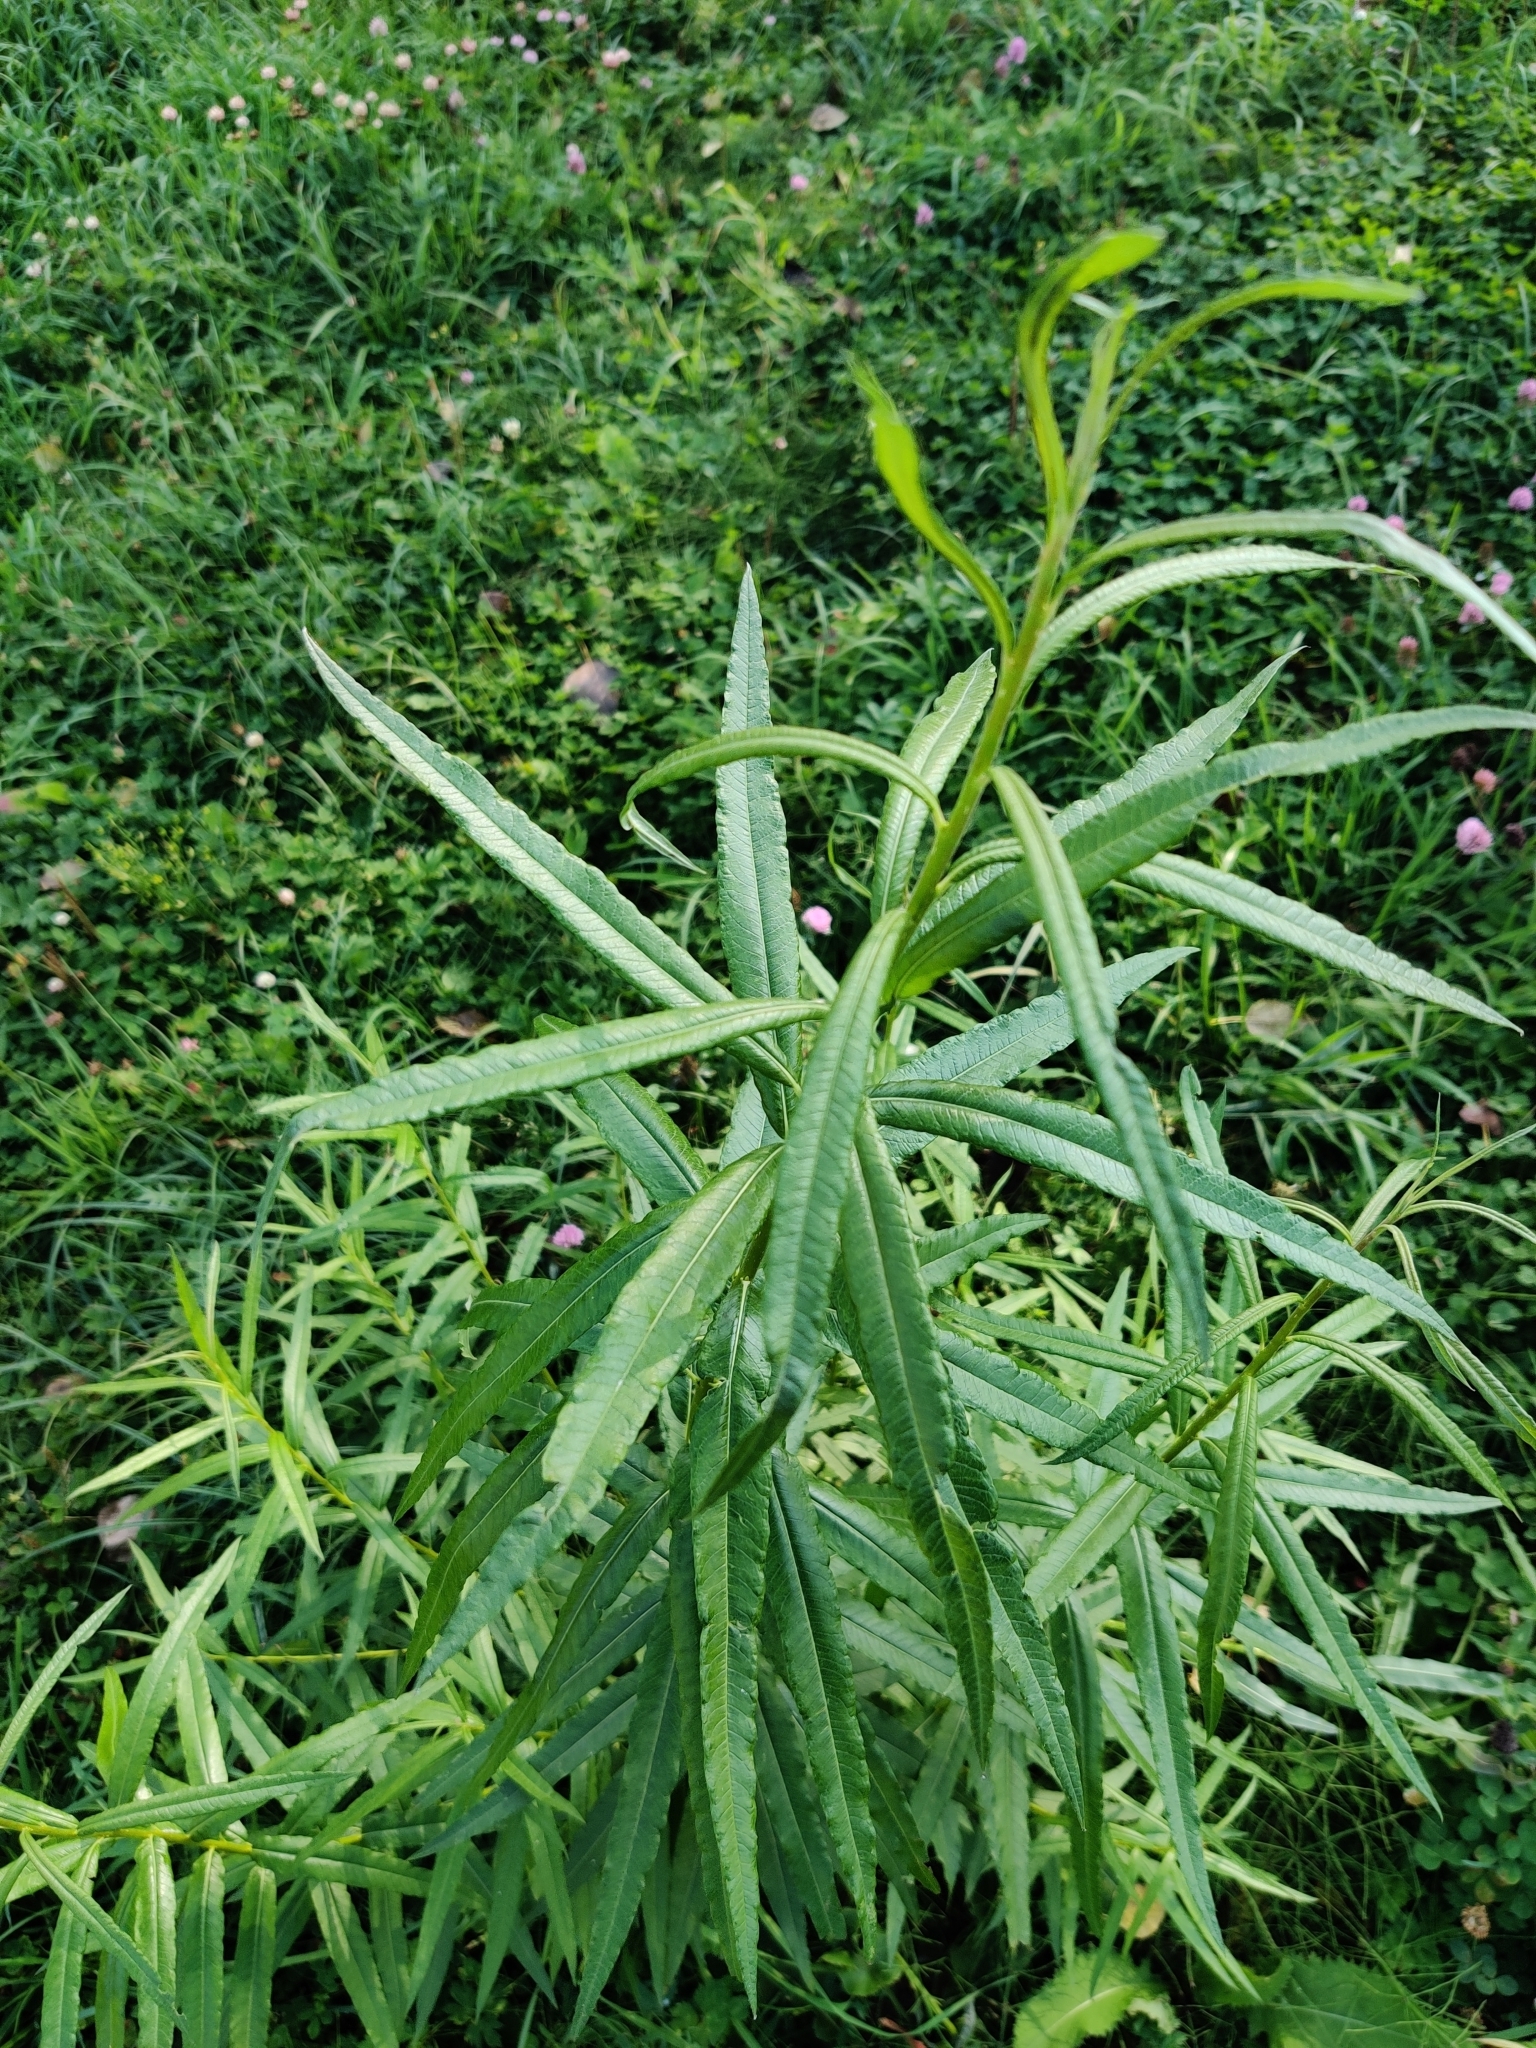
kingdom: Plantae
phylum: Tracheophyta
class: Magnoliopsida
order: Myrtales
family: Onagraceae
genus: Chamaenerion
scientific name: Chamaenerion angustifolium
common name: Fireweed
